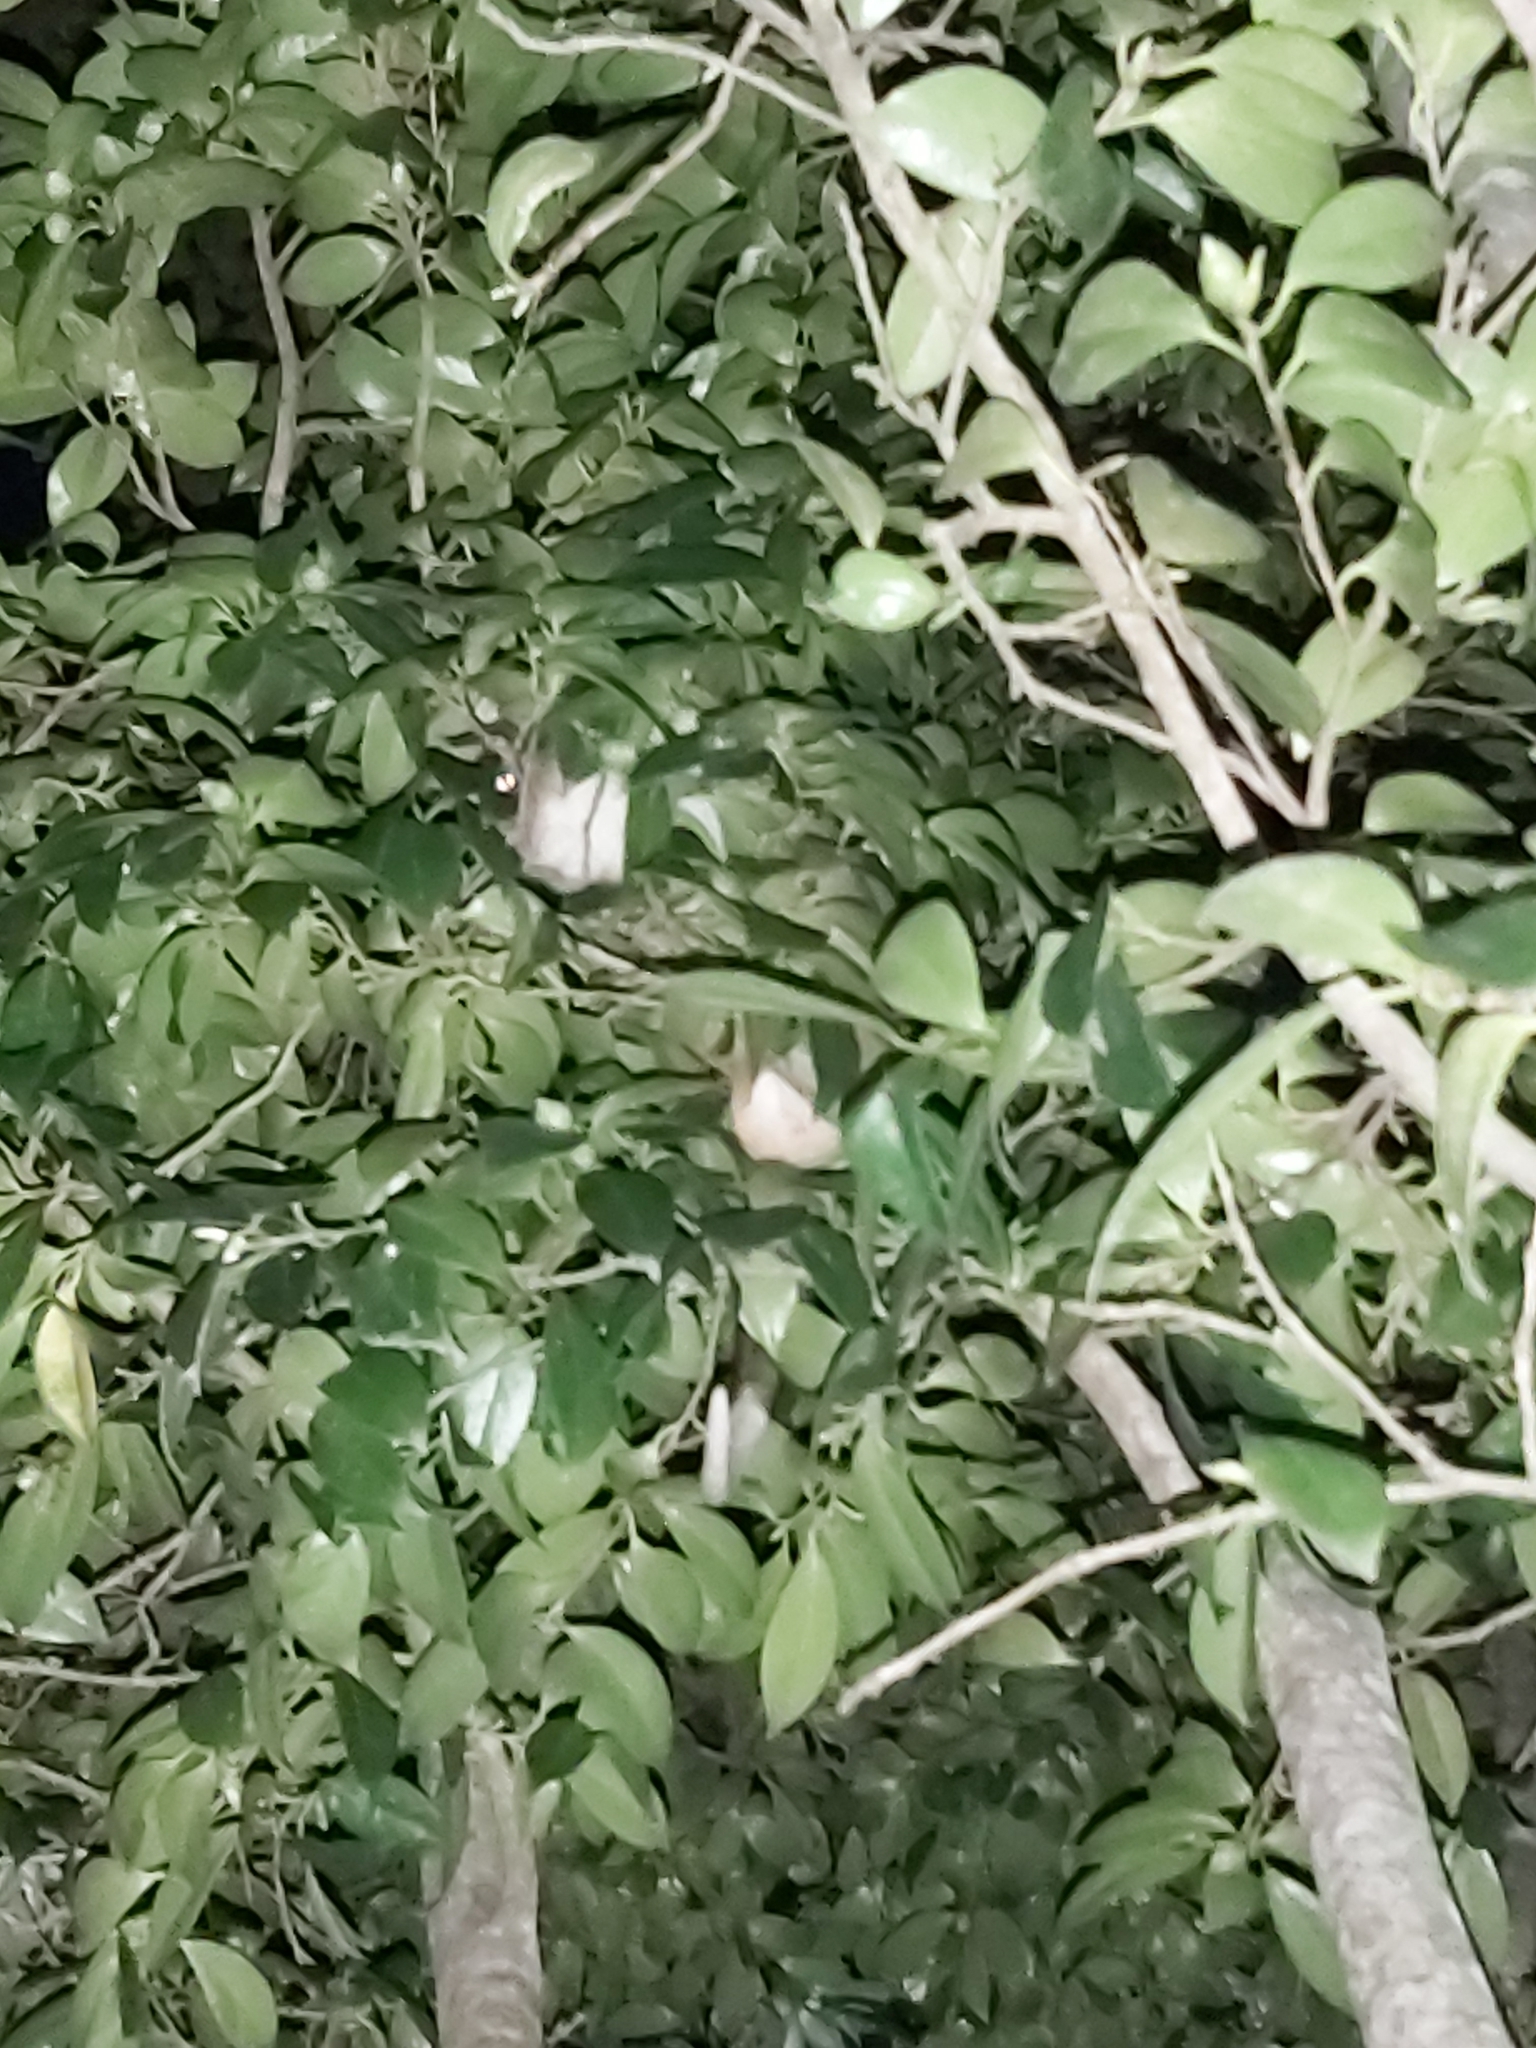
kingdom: Animalia
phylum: Chordata
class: Mammalia
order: Diprotodontia
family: Pseudocheiridae
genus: Pseudocheirus
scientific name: Pseudocheirus peregrinus
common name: Common ringtail possum
